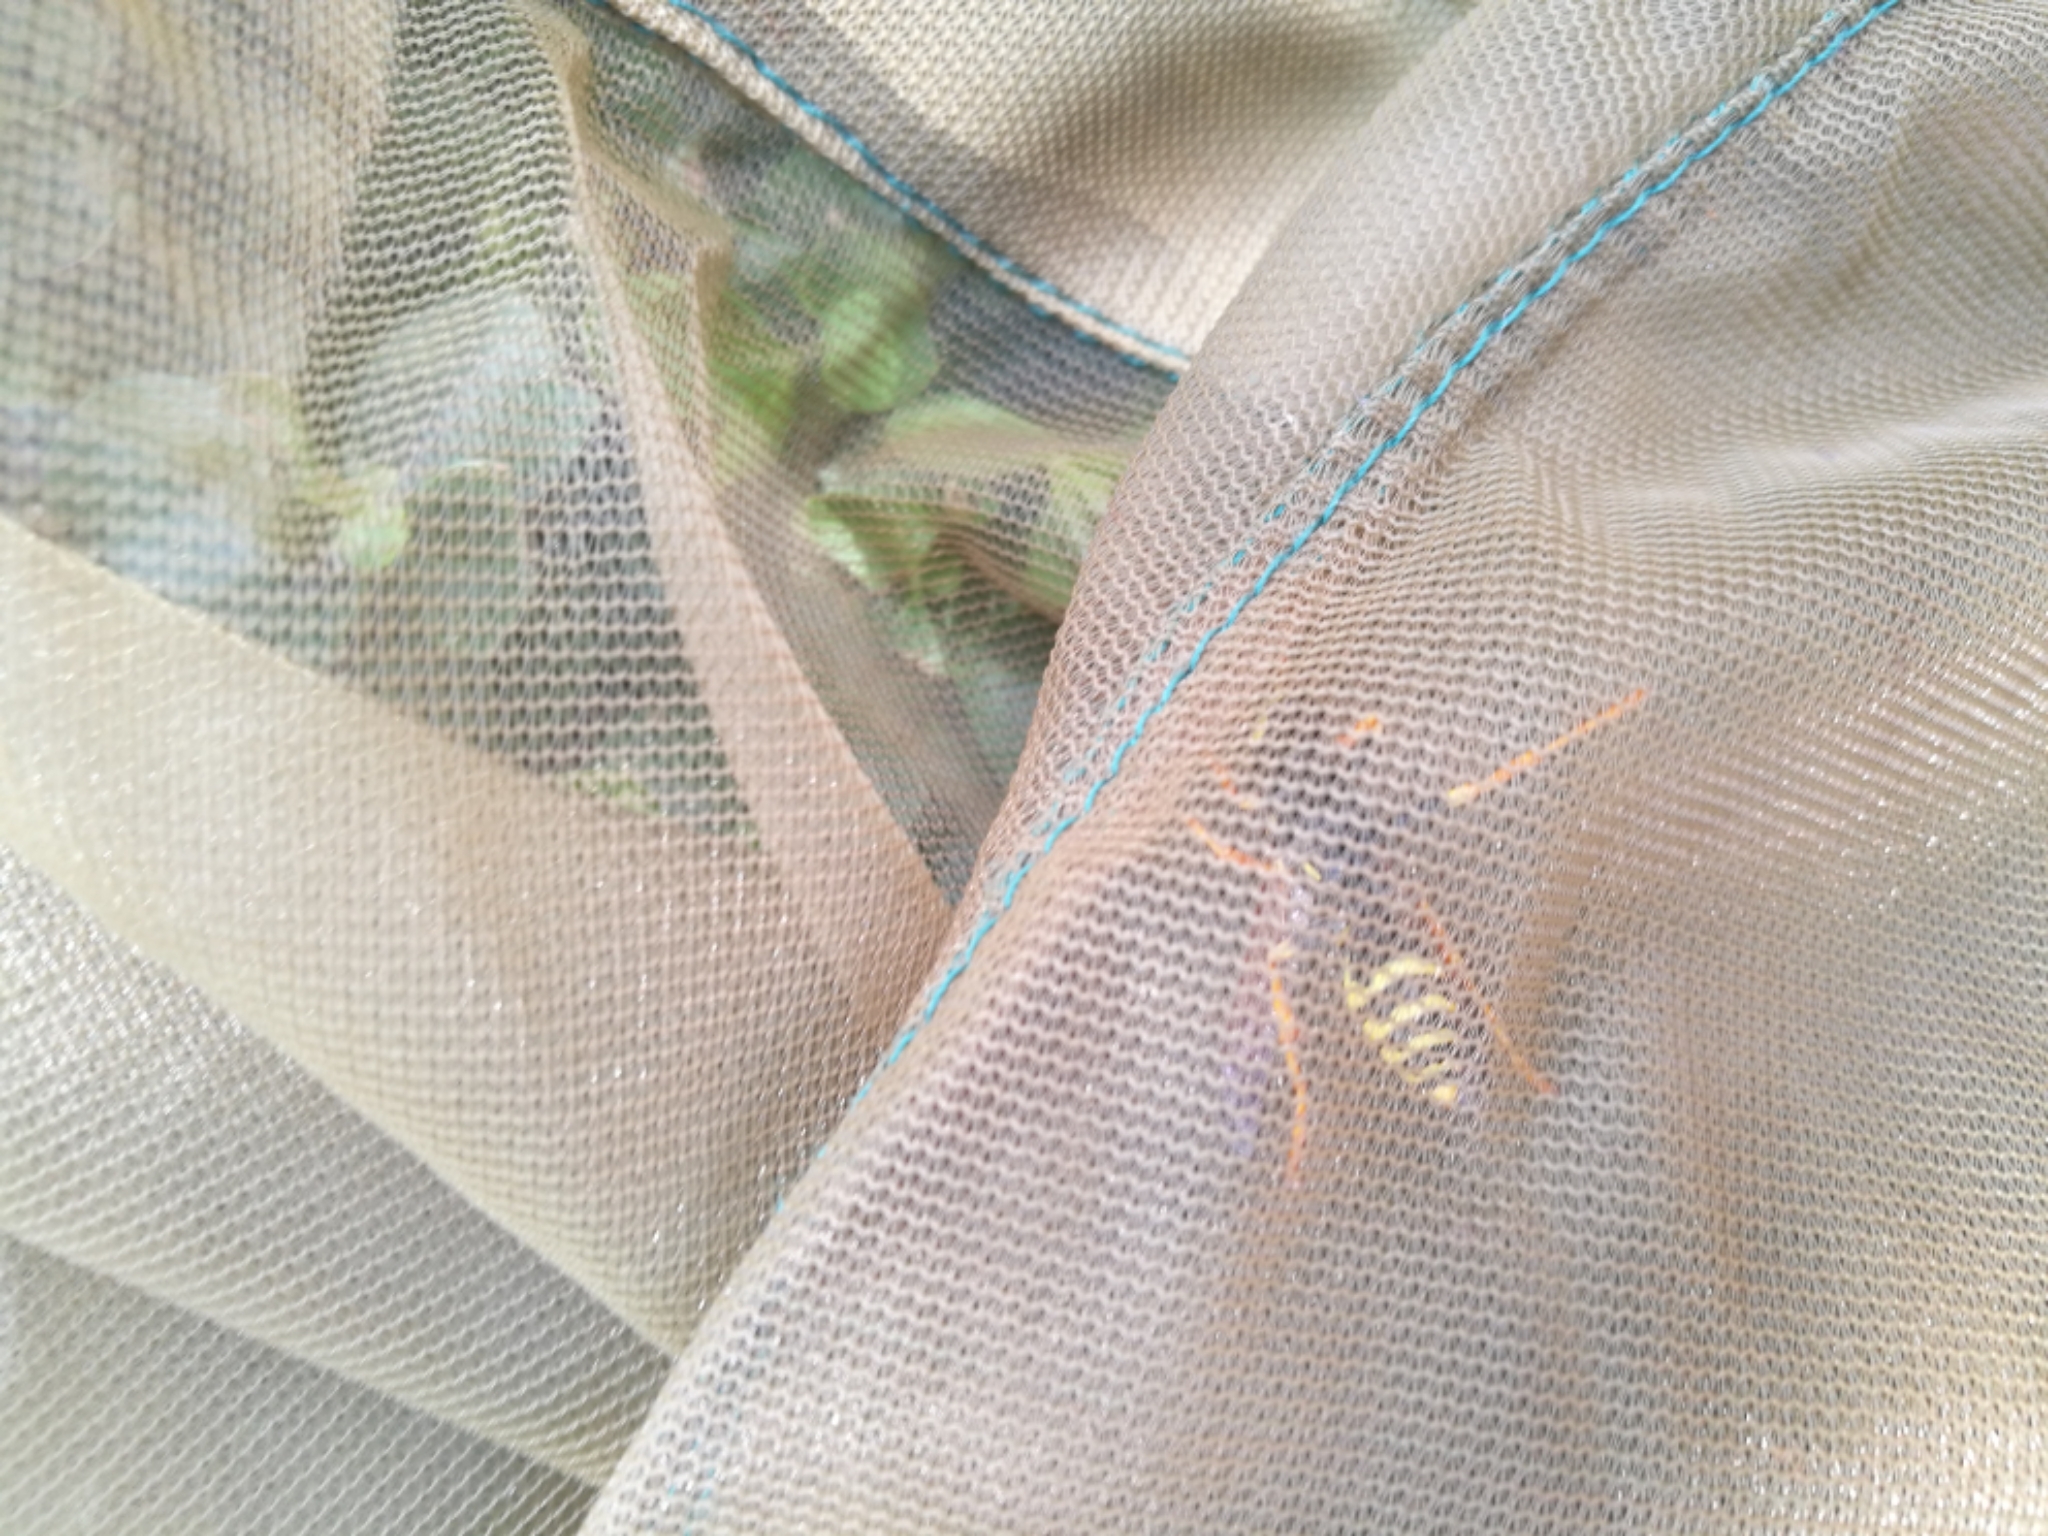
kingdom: Animalia
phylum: Arthropoda
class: Insecta
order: Hymenoptera
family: Eumenidae
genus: Polistes
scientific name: Polistes dominula
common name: Paper wasp
